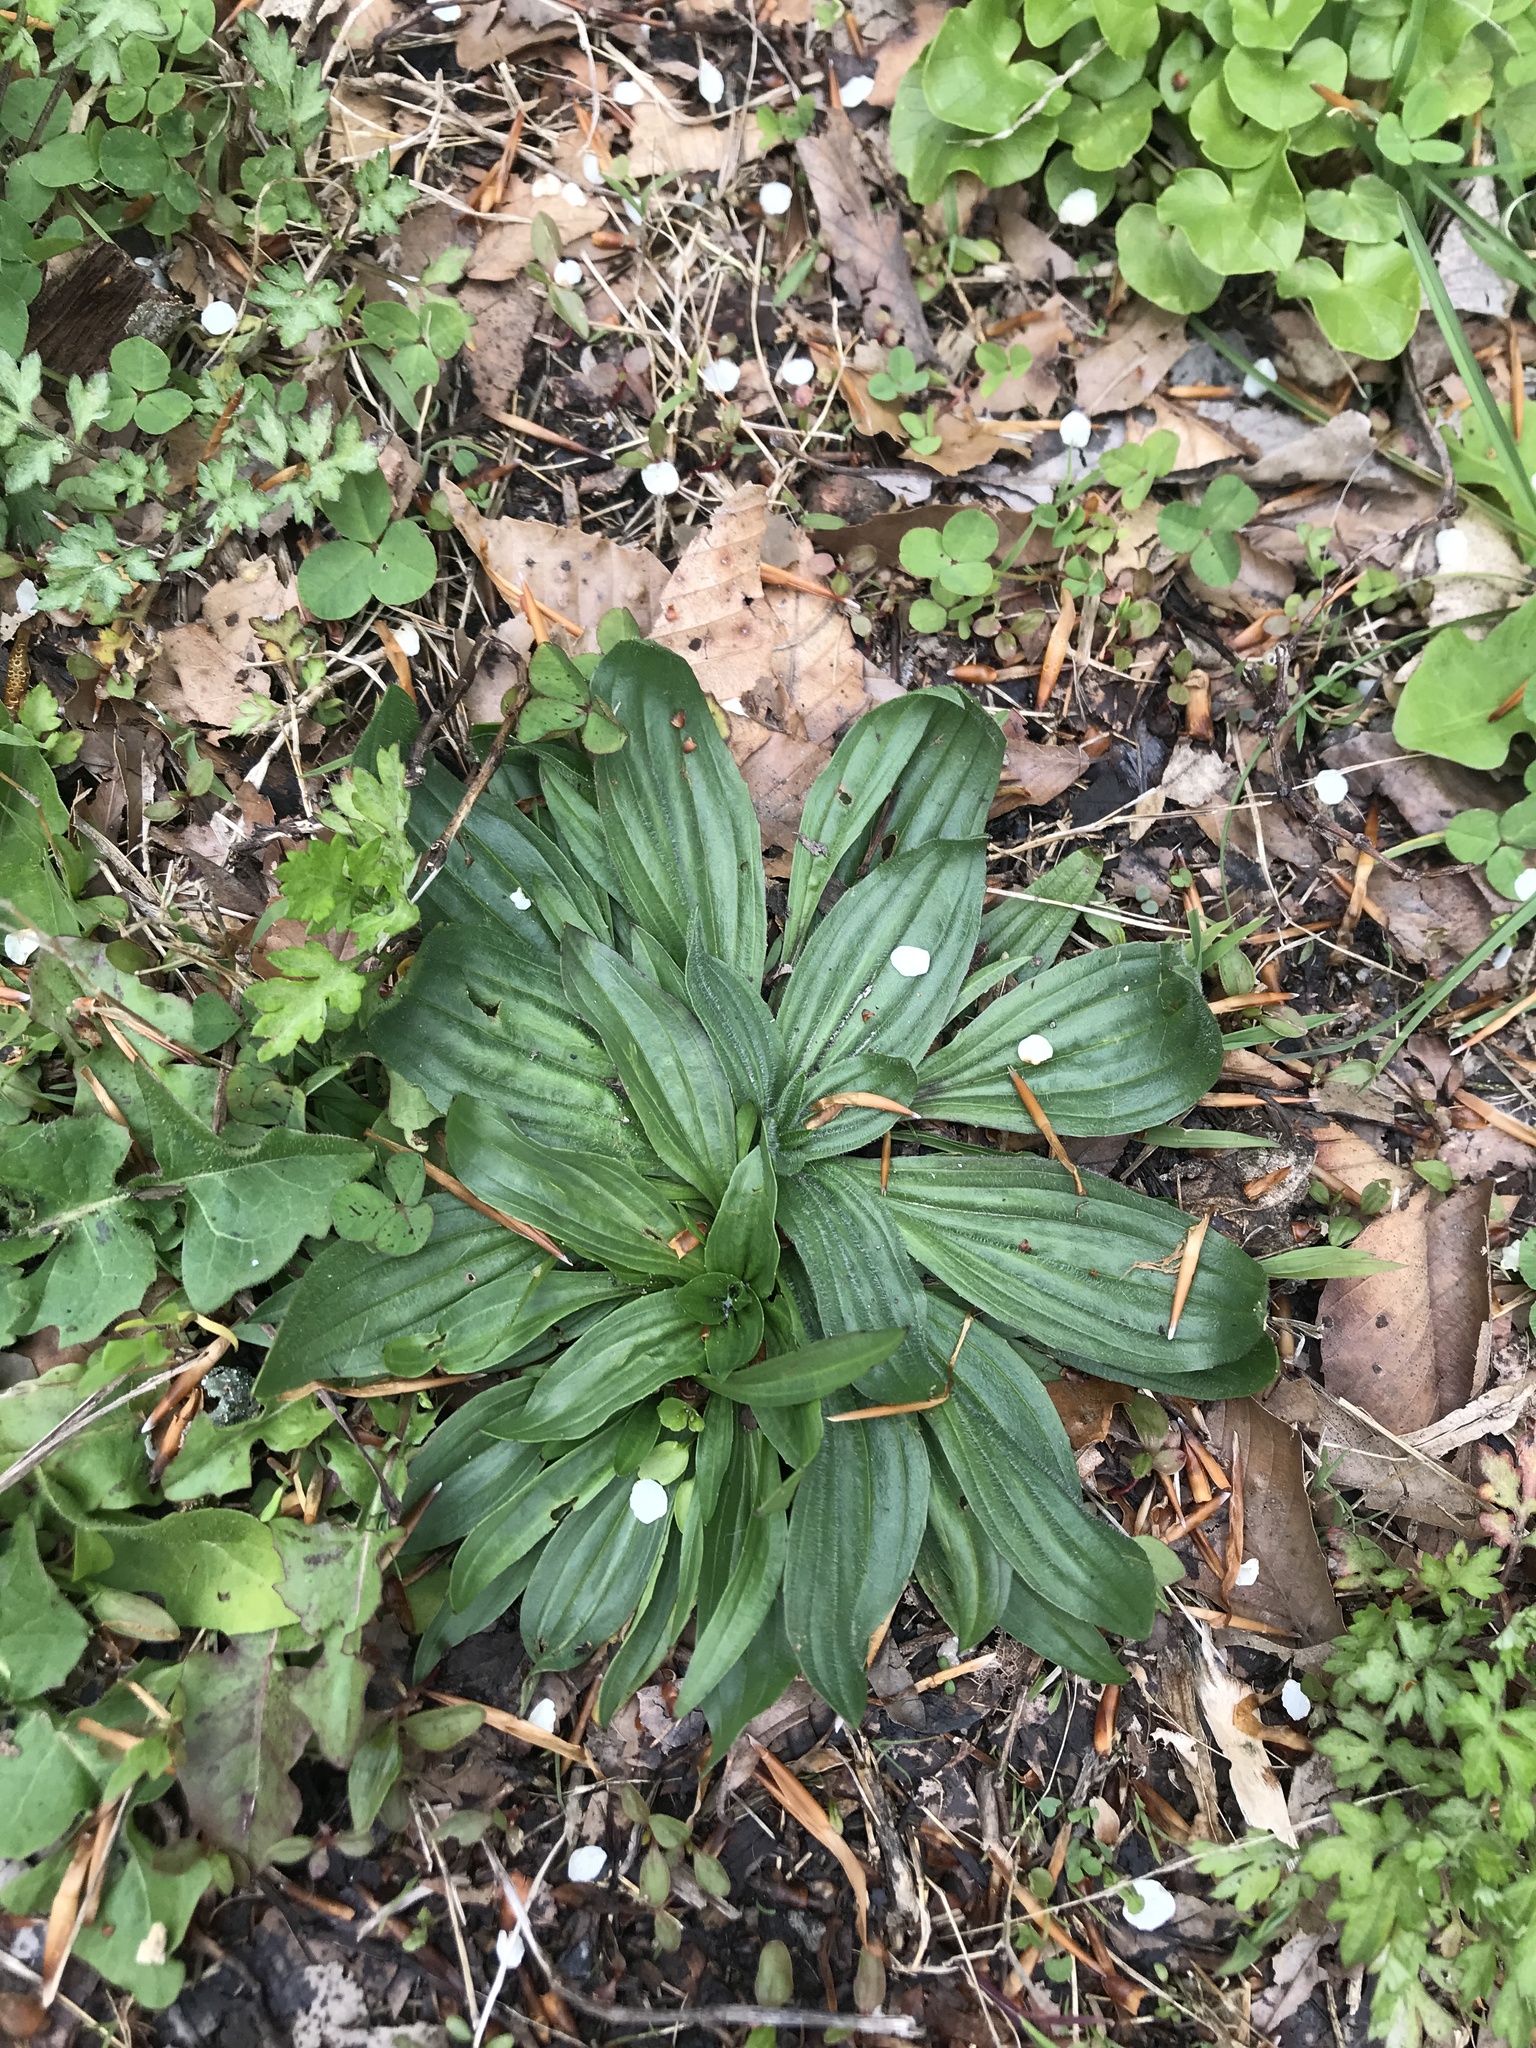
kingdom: Plantae
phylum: Tracheophyta
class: Magnoliopsida
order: Lamiales
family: Plantaginaceae
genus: Plantago
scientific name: Plantago lanceolata
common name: Ribwort plantain
